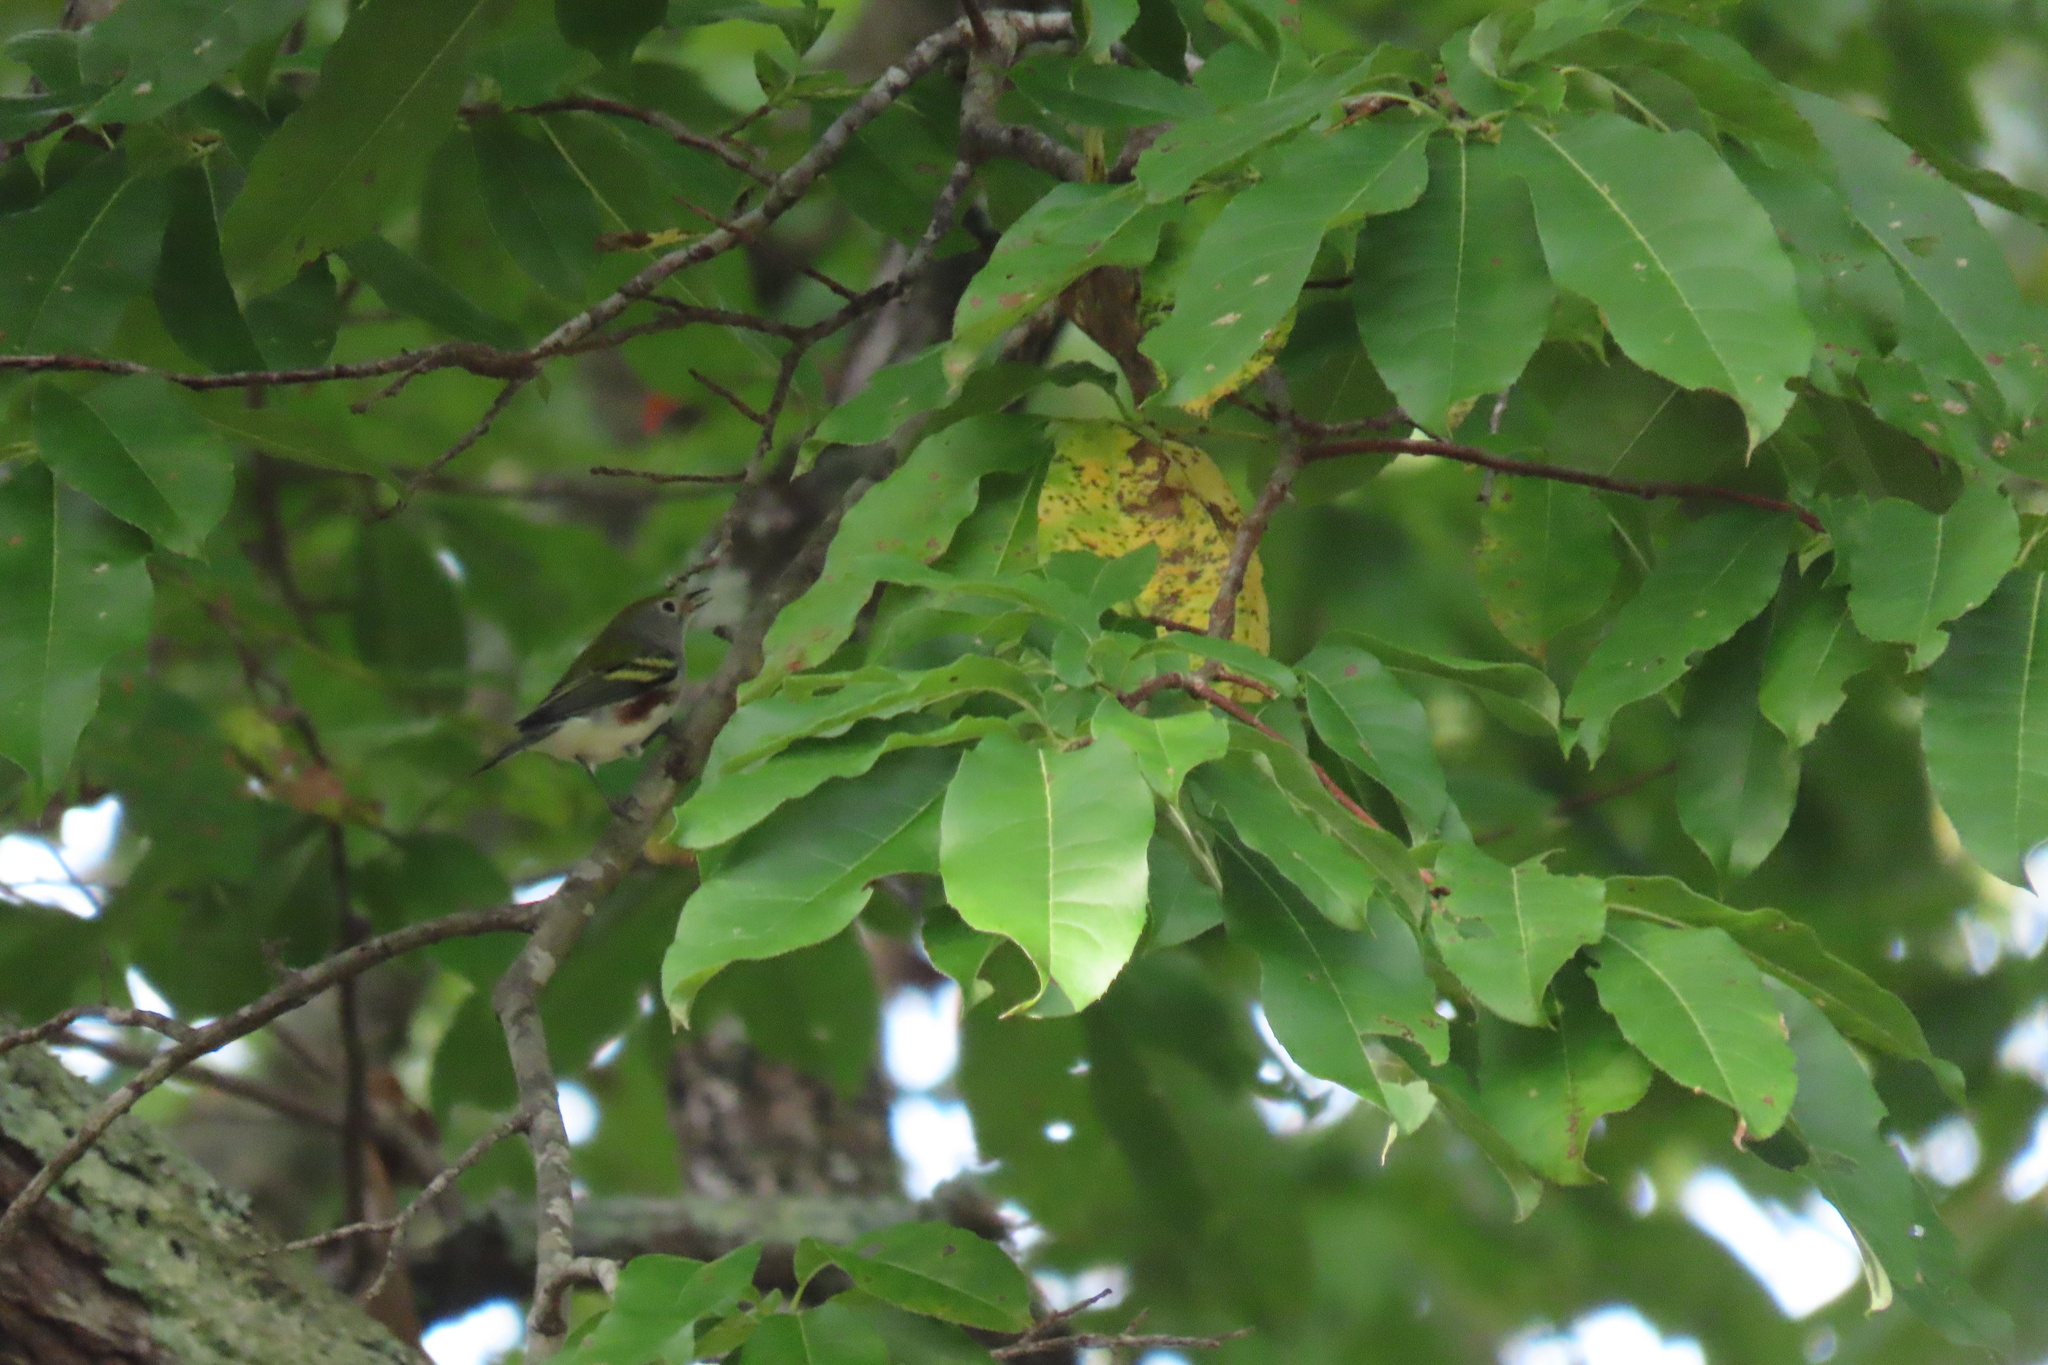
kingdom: Animalia
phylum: Chordata
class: Aves
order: Passeriformes
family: Parulidae
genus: Setophaga
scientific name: Setophaga pensylvanica
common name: Chestnut-sided warbler
